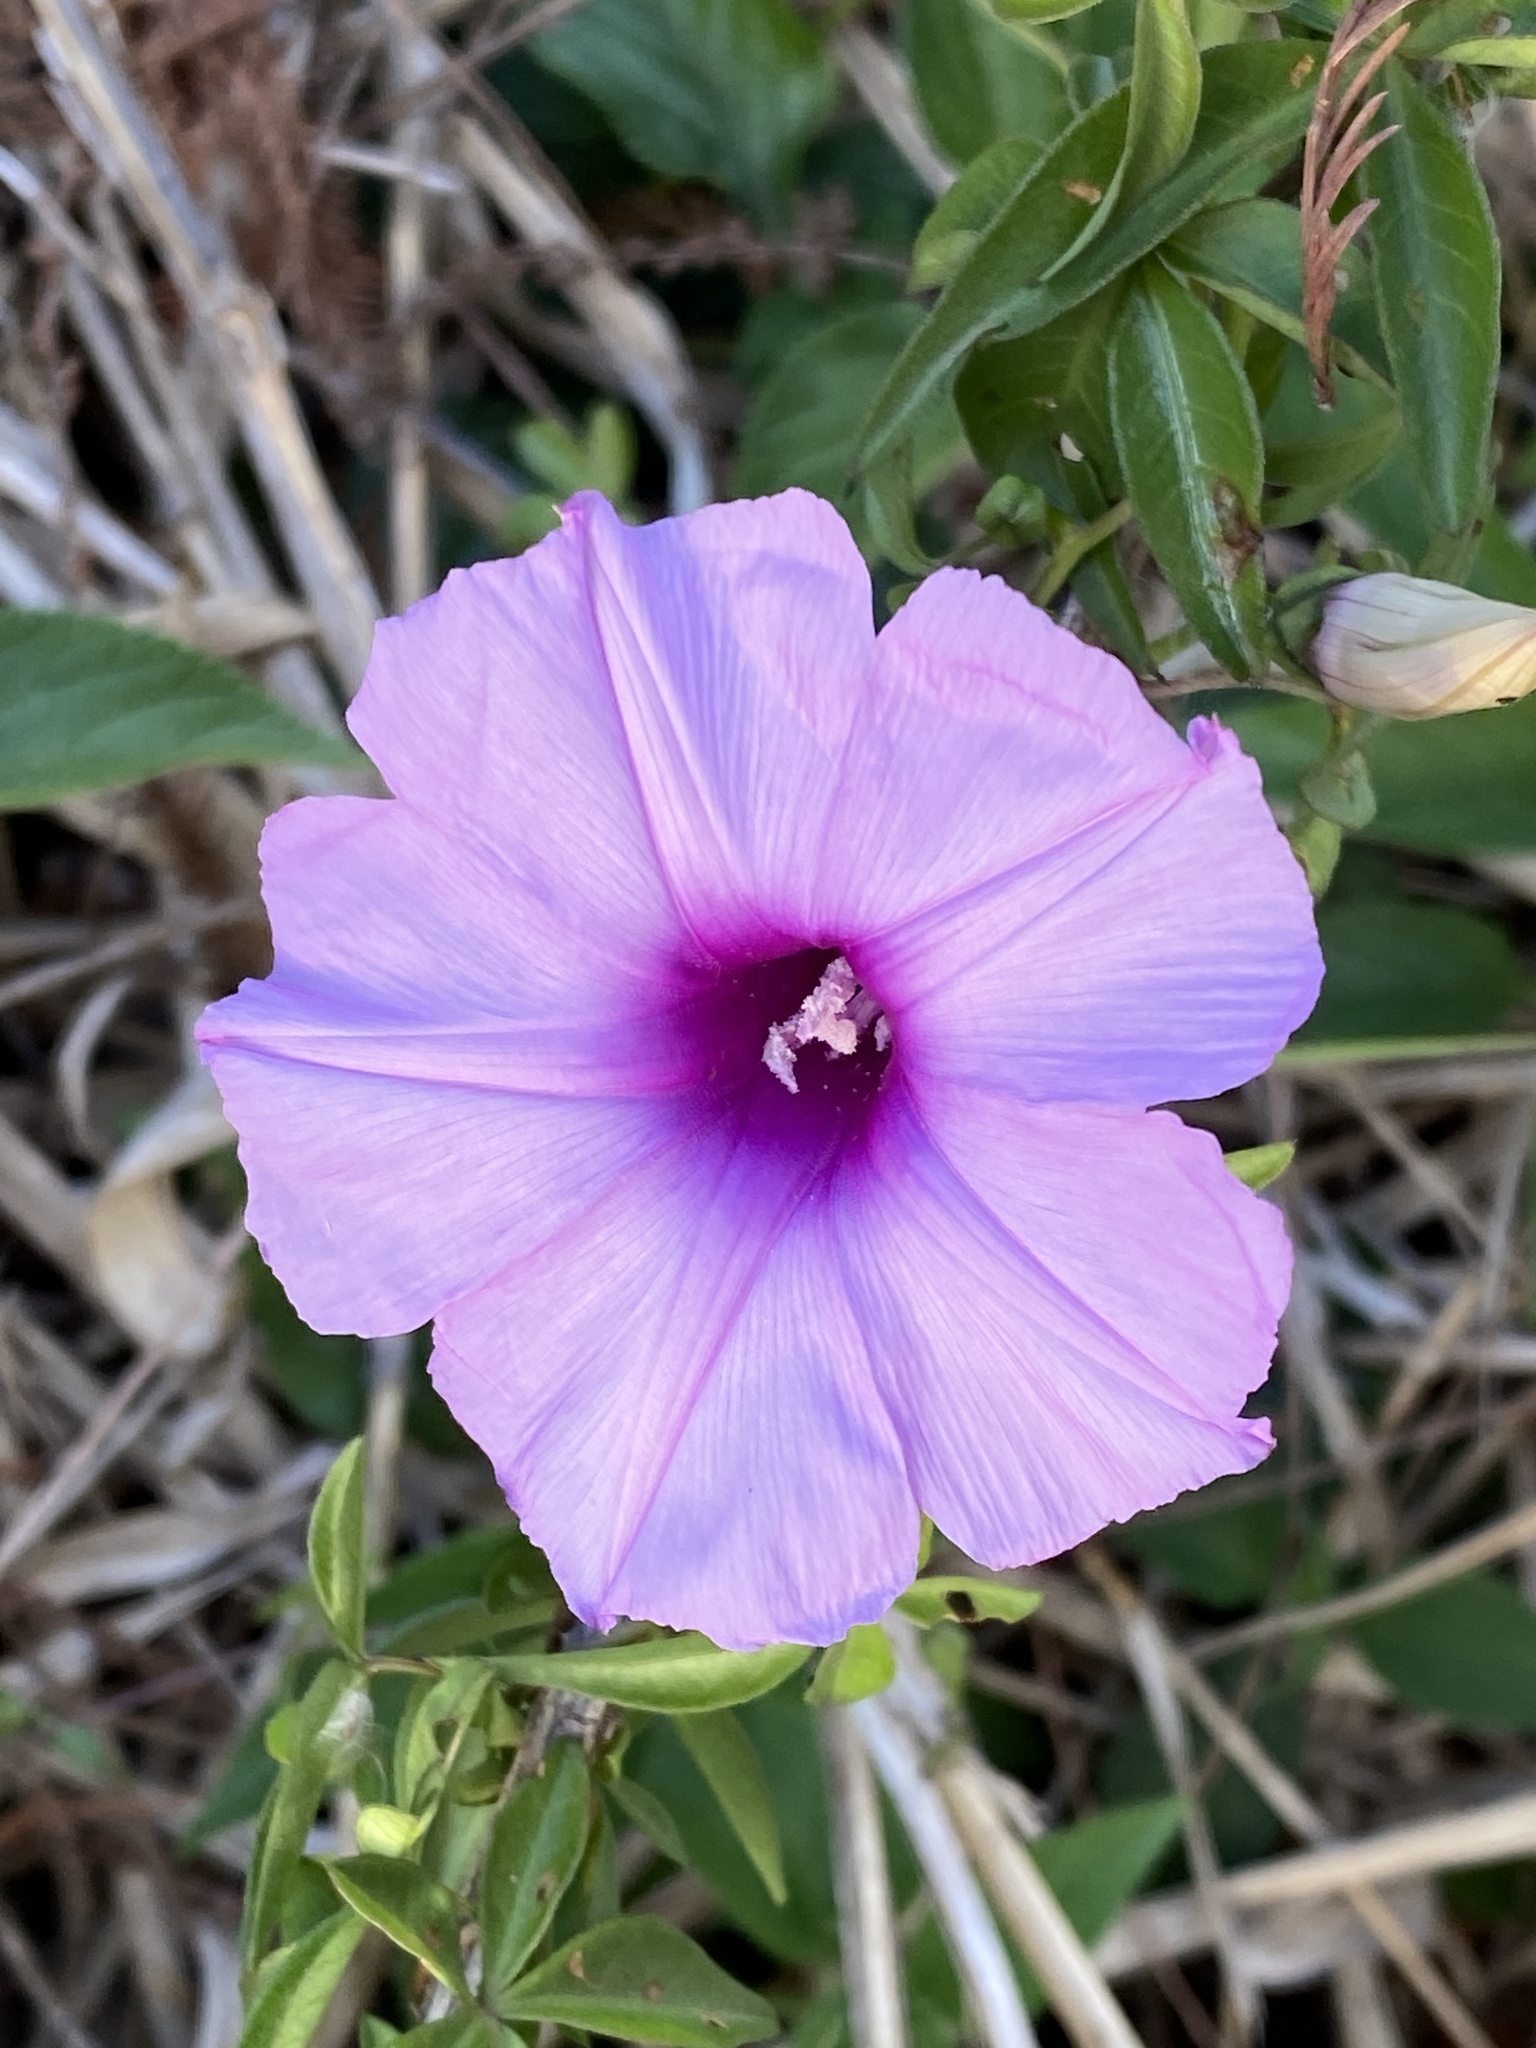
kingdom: Plantae
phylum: Tracheophyta
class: Magnoliopsida
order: Solanales
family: Convolvulaceae
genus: Ipomoea
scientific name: Ipomoea cairica
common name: Mile a minute vine
